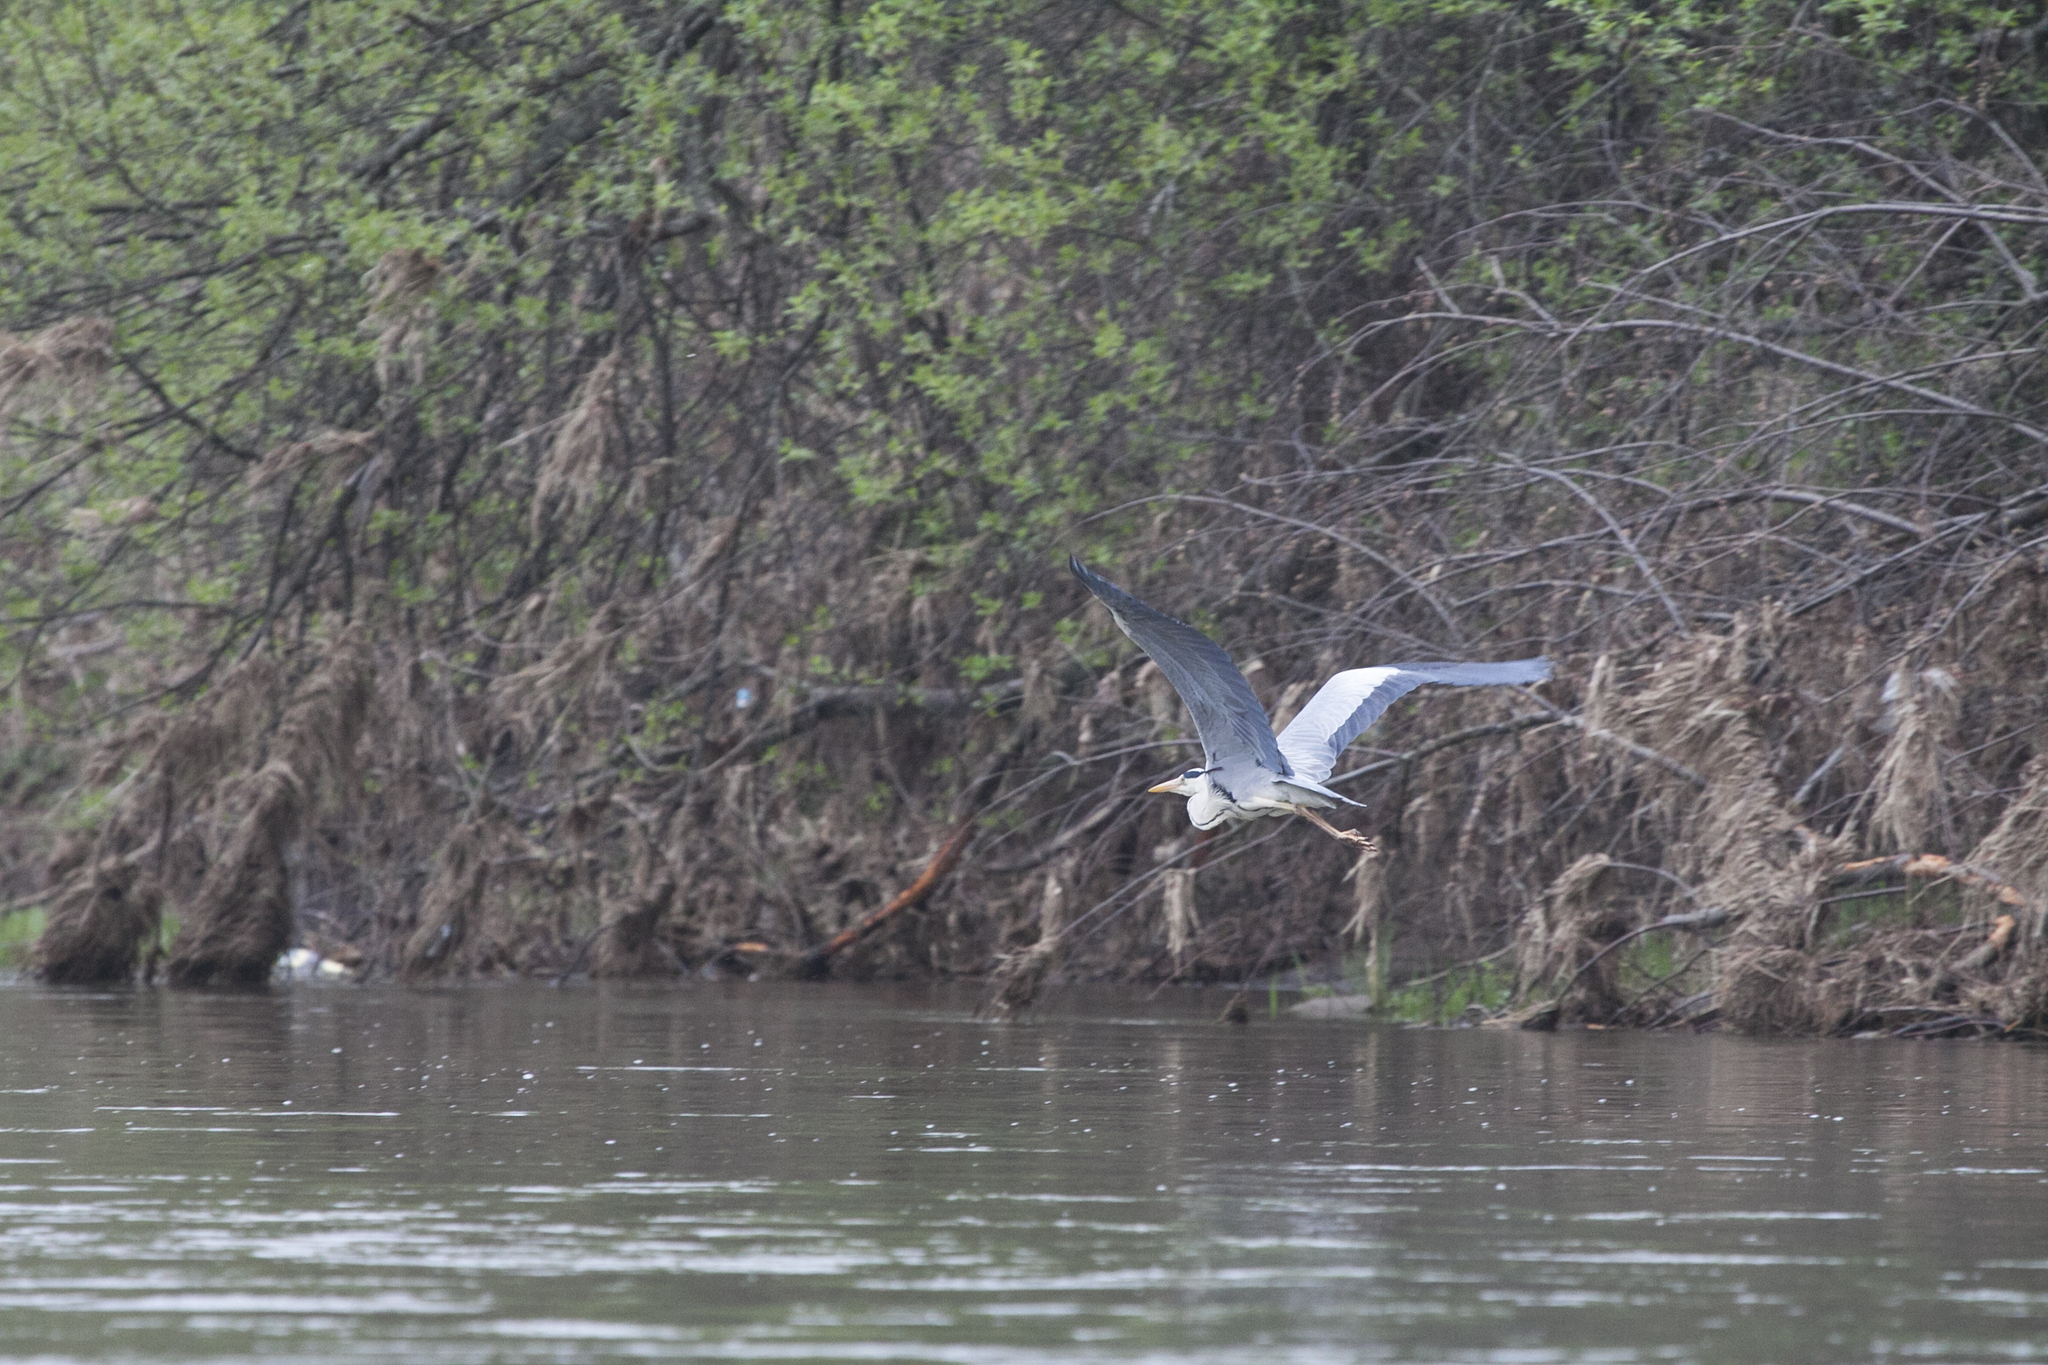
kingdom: Animalia
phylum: Chordata
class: Aves
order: Pelecaniformes
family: Ardeidae
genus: Ardea
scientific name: Ardea cinerea
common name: Grey heron
